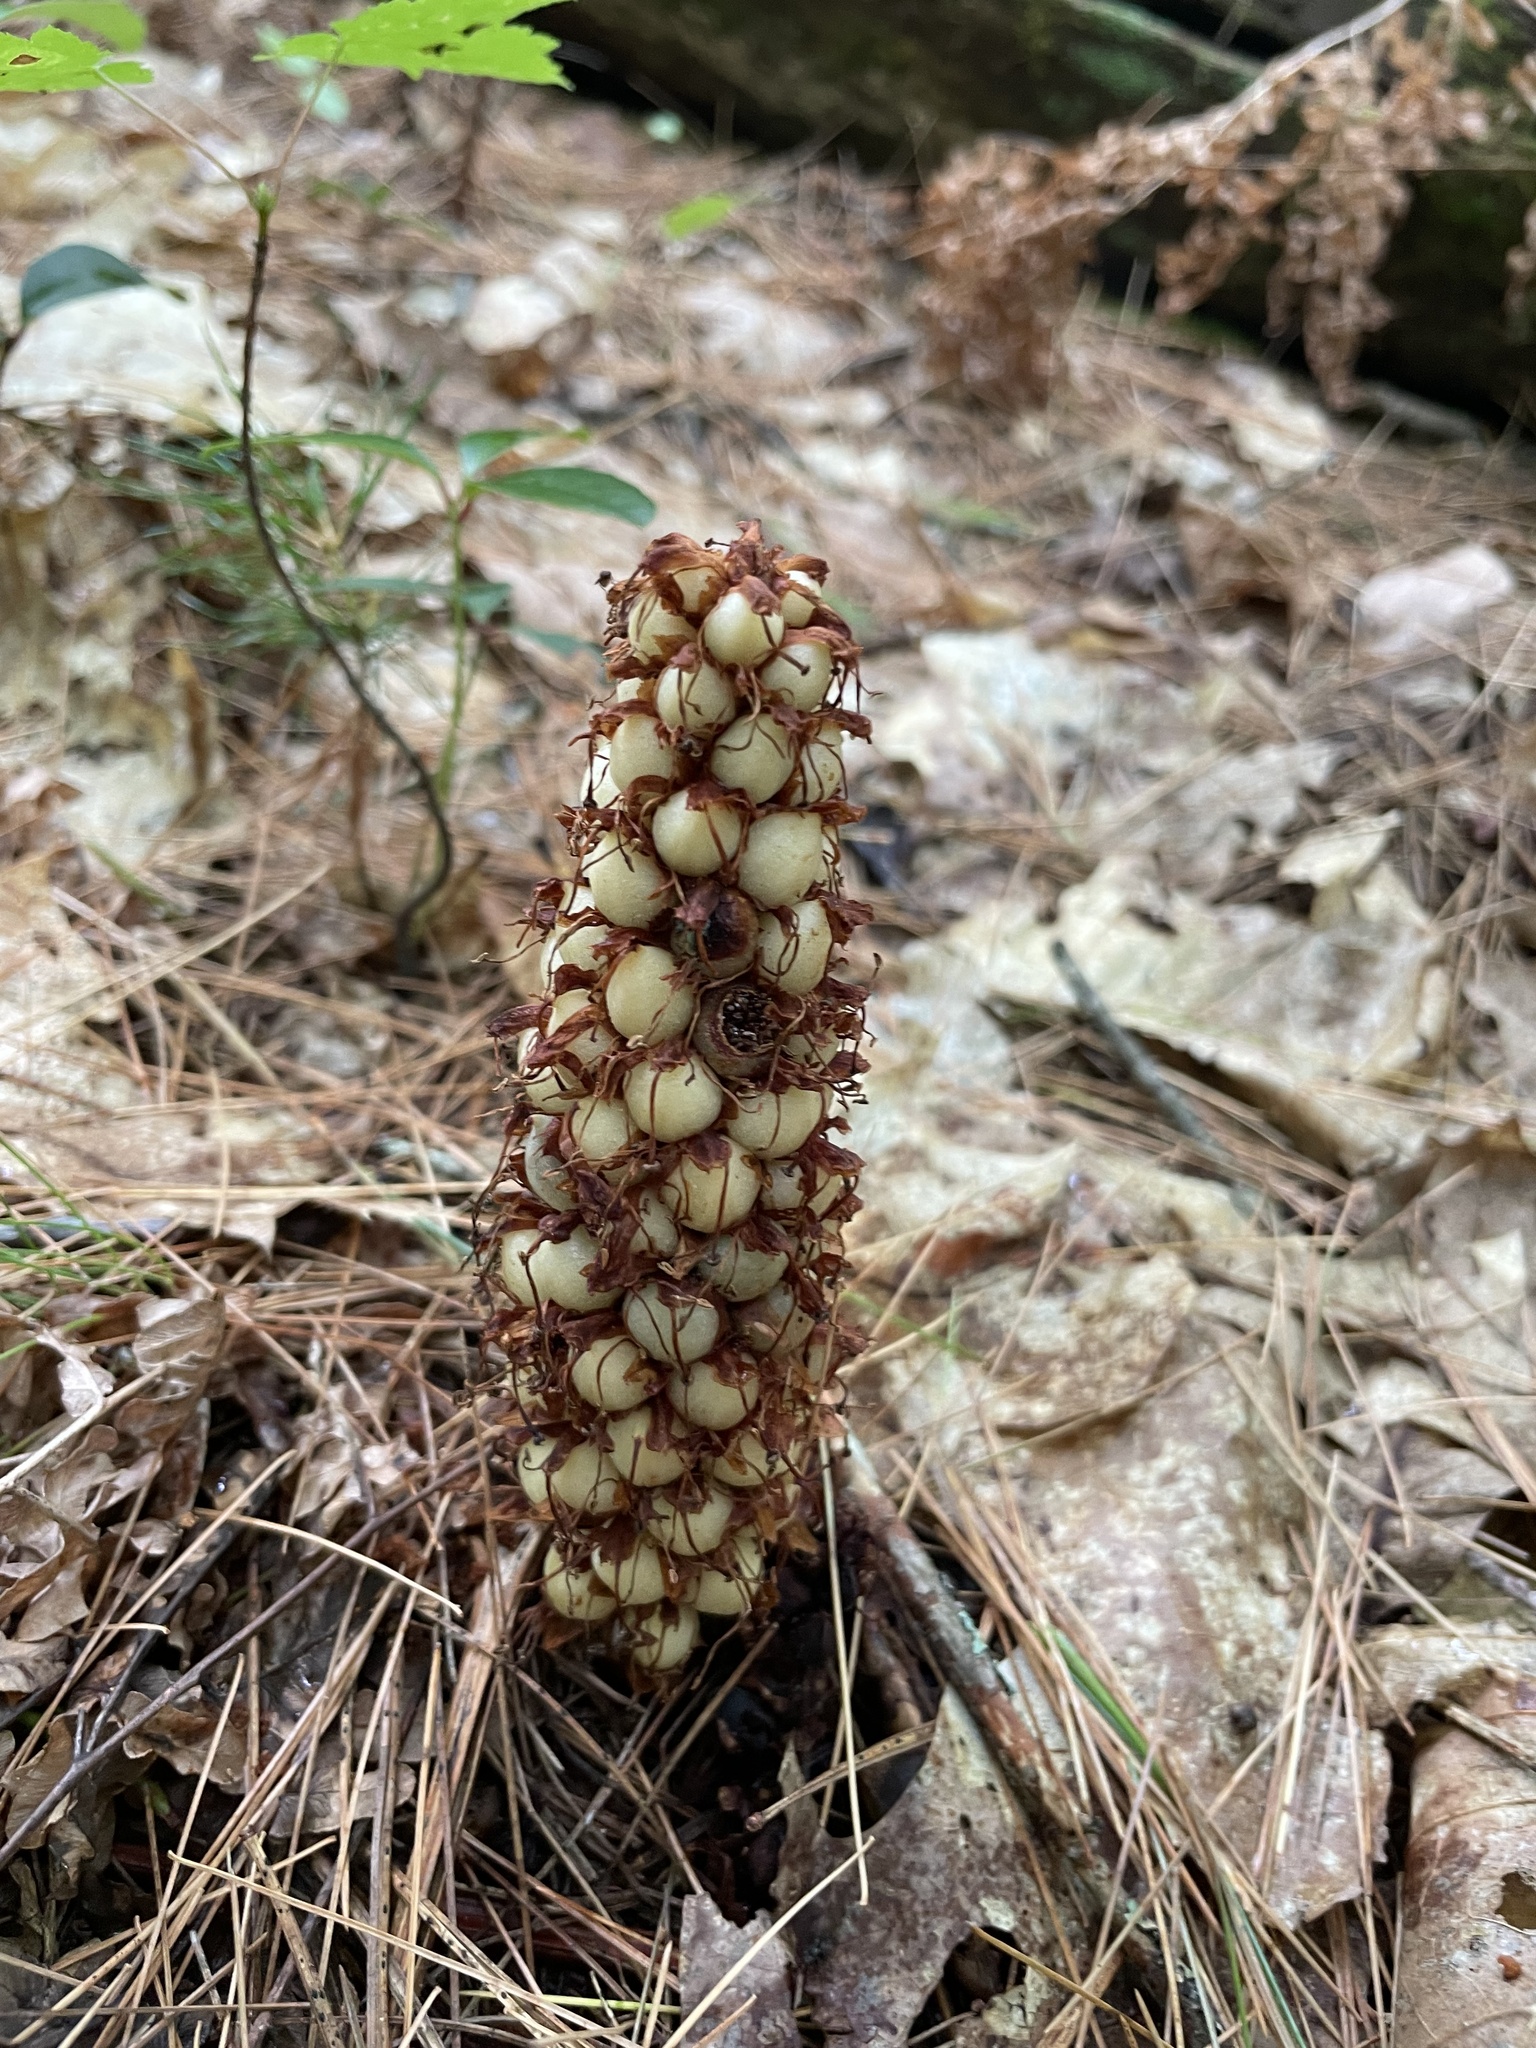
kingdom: Plantae
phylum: Tracheophyta
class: Magnoliopsida
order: Lamiales
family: Orobanchaceae
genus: Conopholis
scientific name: Conopholis americana
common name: American cancer-root
